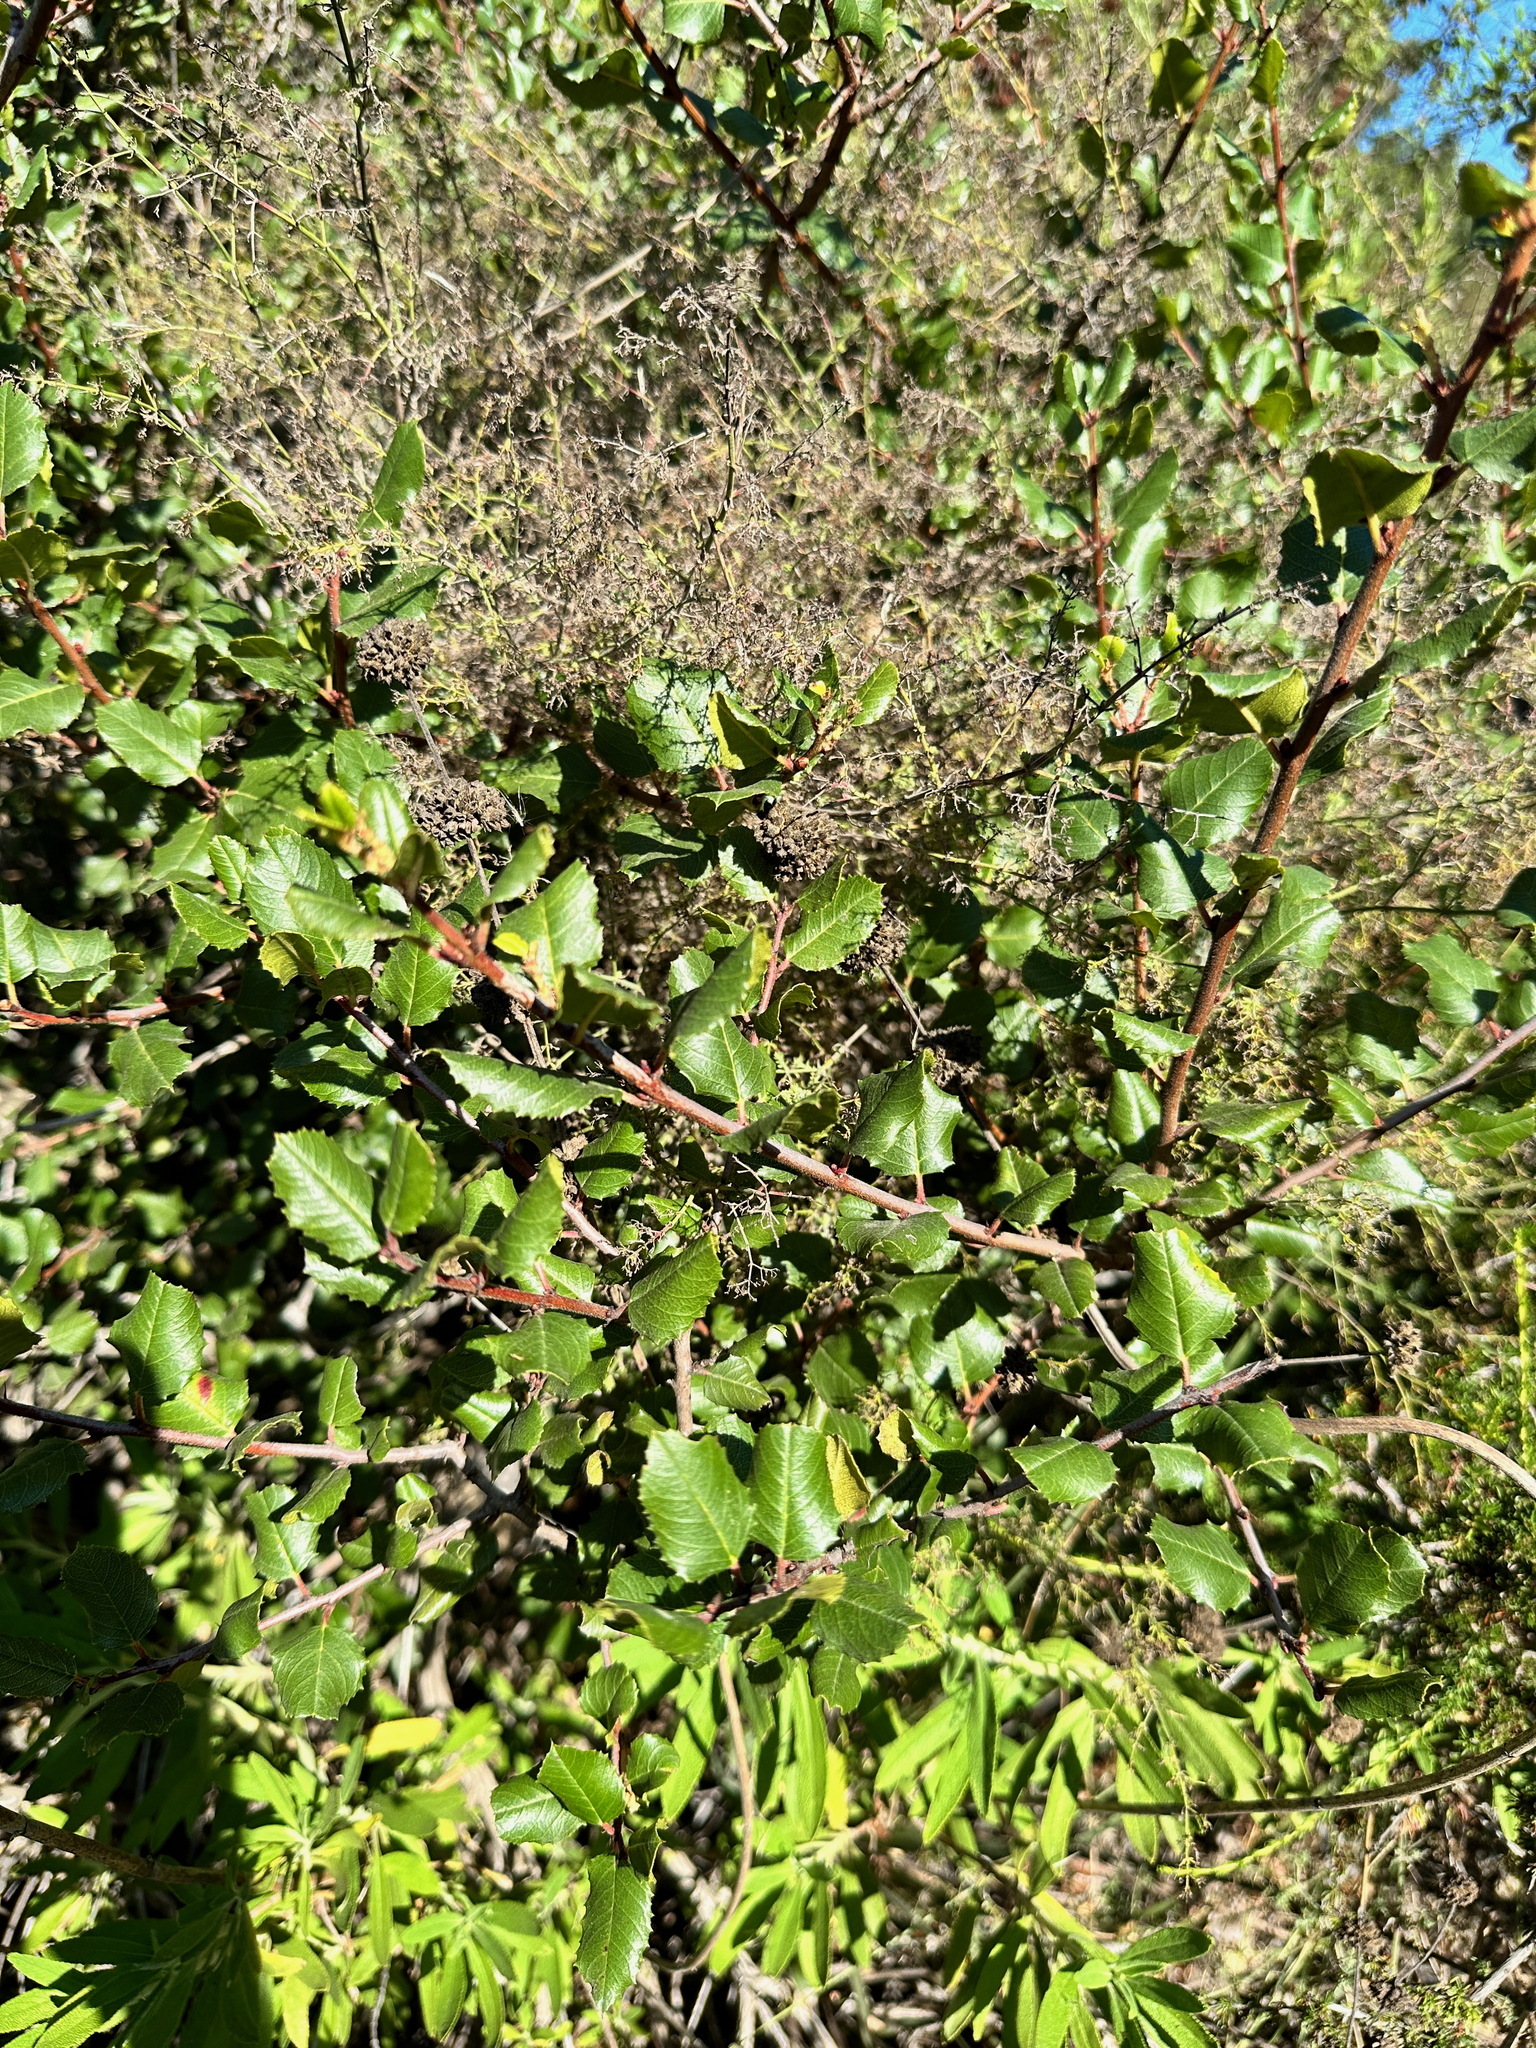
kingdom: Plantae
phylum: Tracheophyta
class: Magnoliopsida
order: Rosales
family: Rhamnaceae
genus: Endotropis
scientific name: Endotropis crocea
